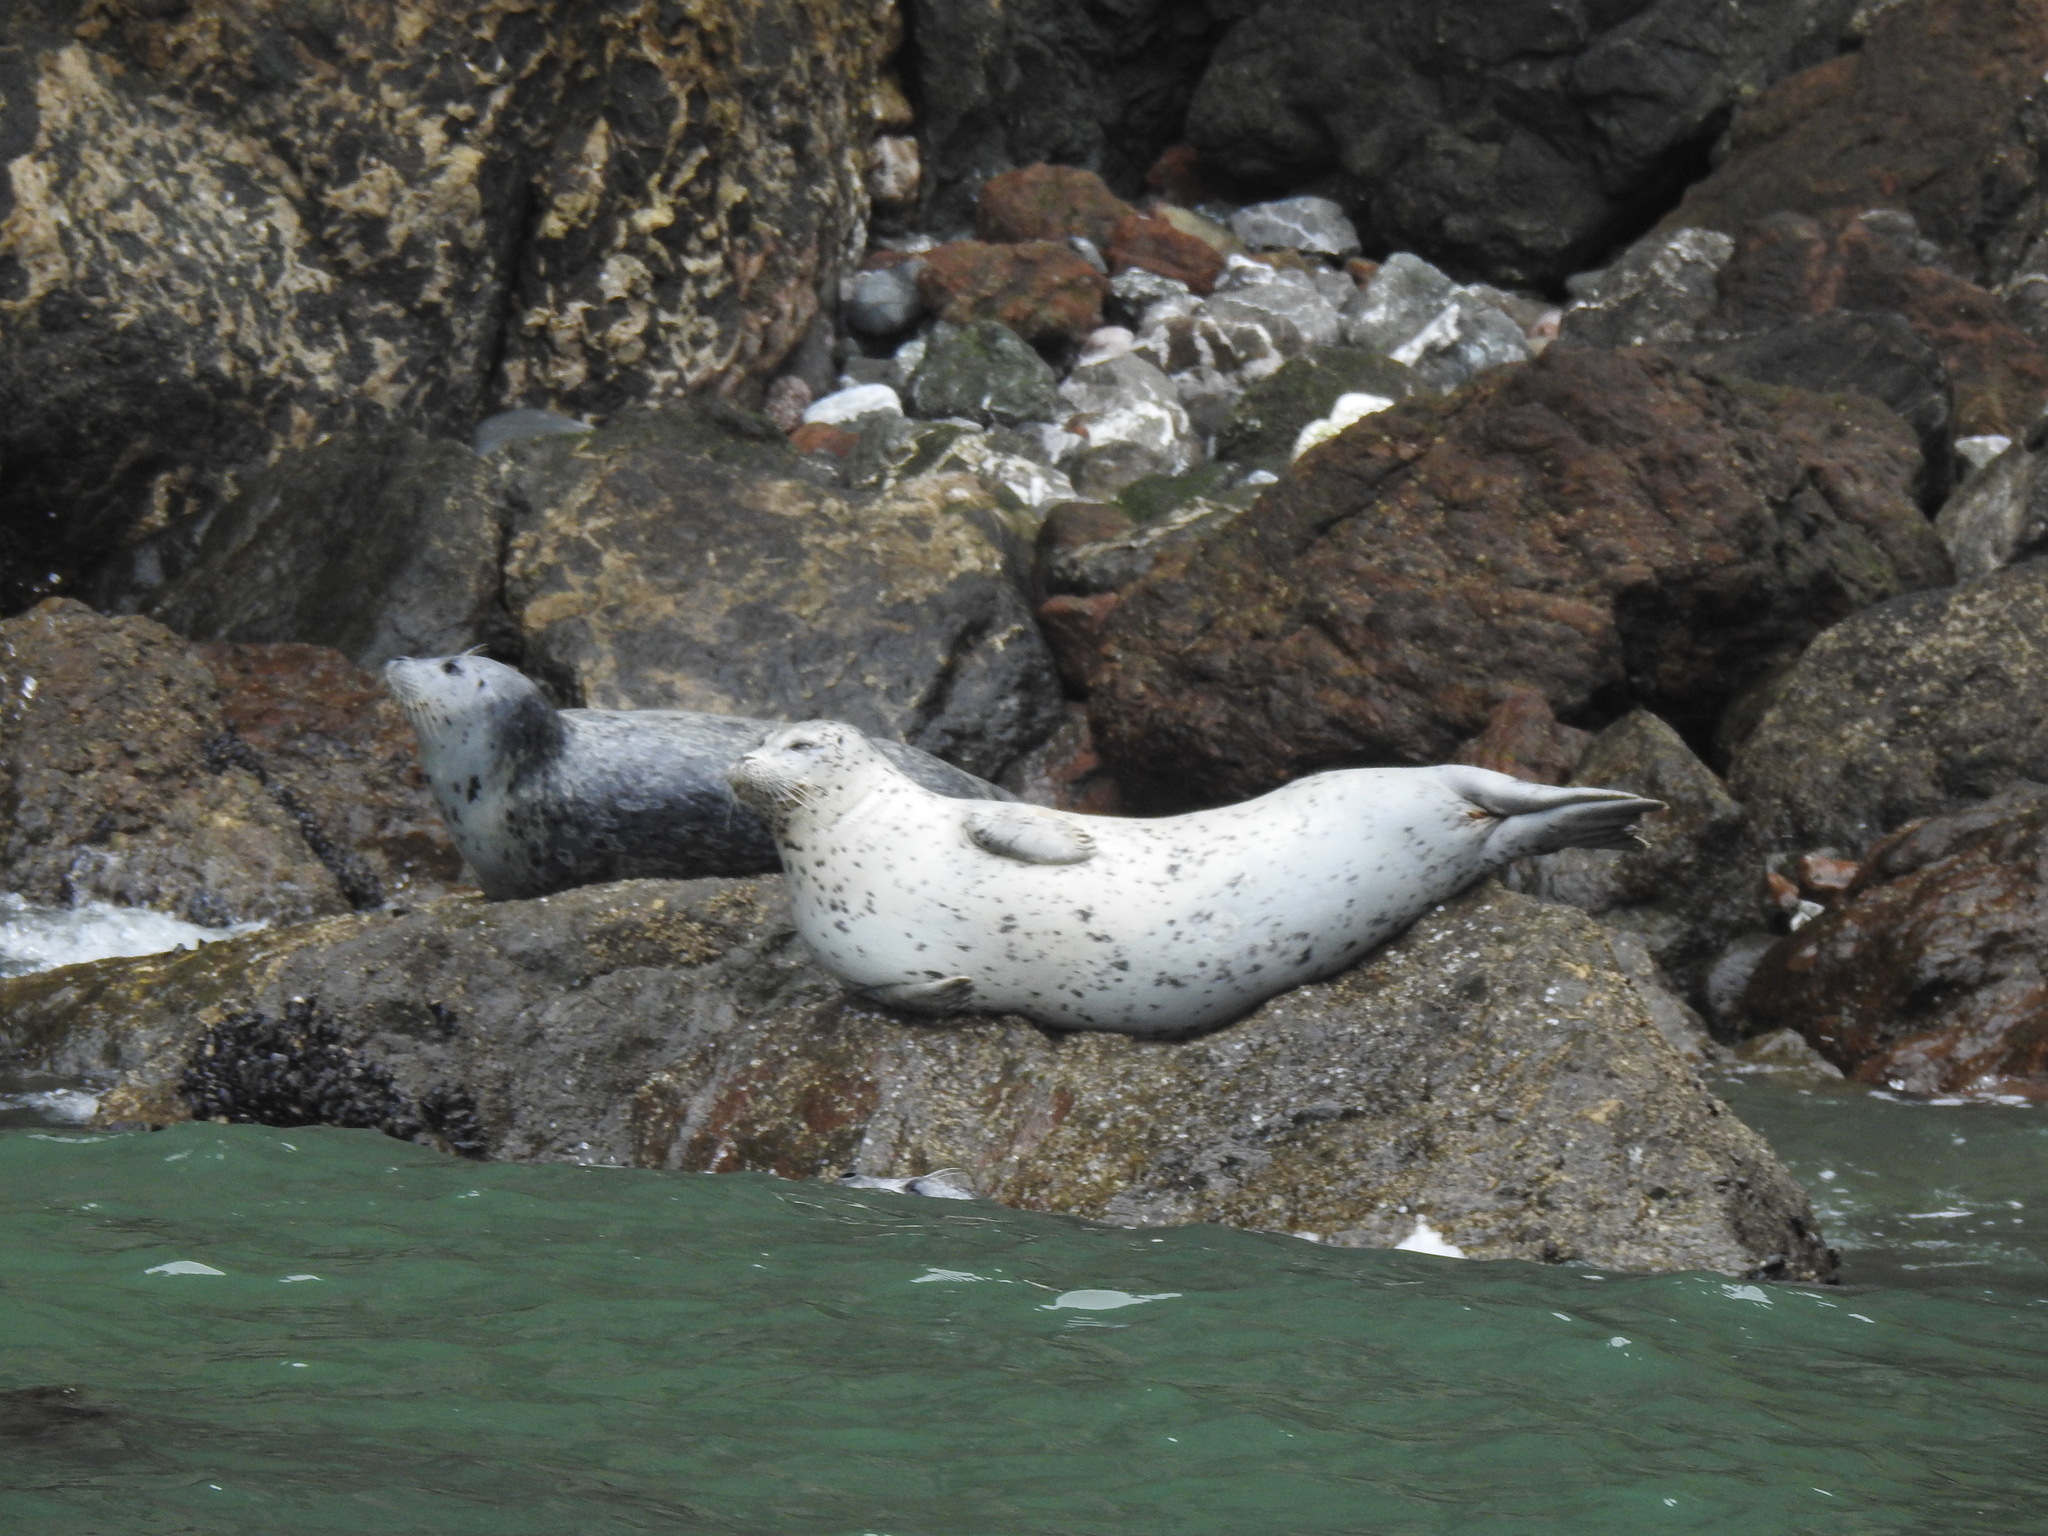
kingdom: Animalia
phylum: Chordata
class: Mammalia
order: Carnivora
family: Phocidae
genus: Phoca
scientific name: Phoca vitulina
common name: Harbor seal
